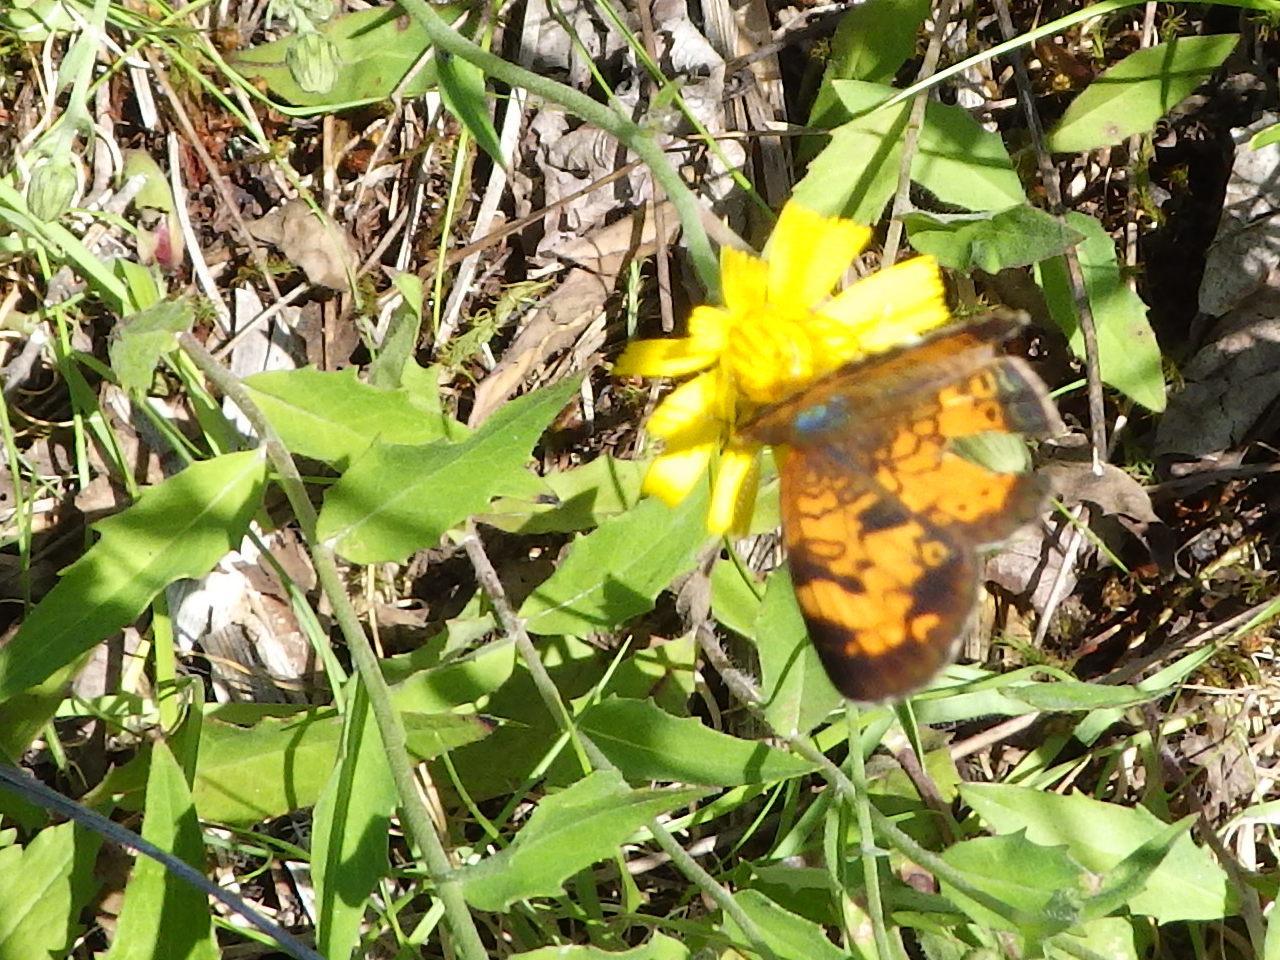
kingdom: Animalia
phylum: Arthropoda
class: Insecta
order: Lepidoptera
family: Nymphalidae
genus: Phyciodes
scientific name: Phyciodes tharos
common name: Pearl crescent
